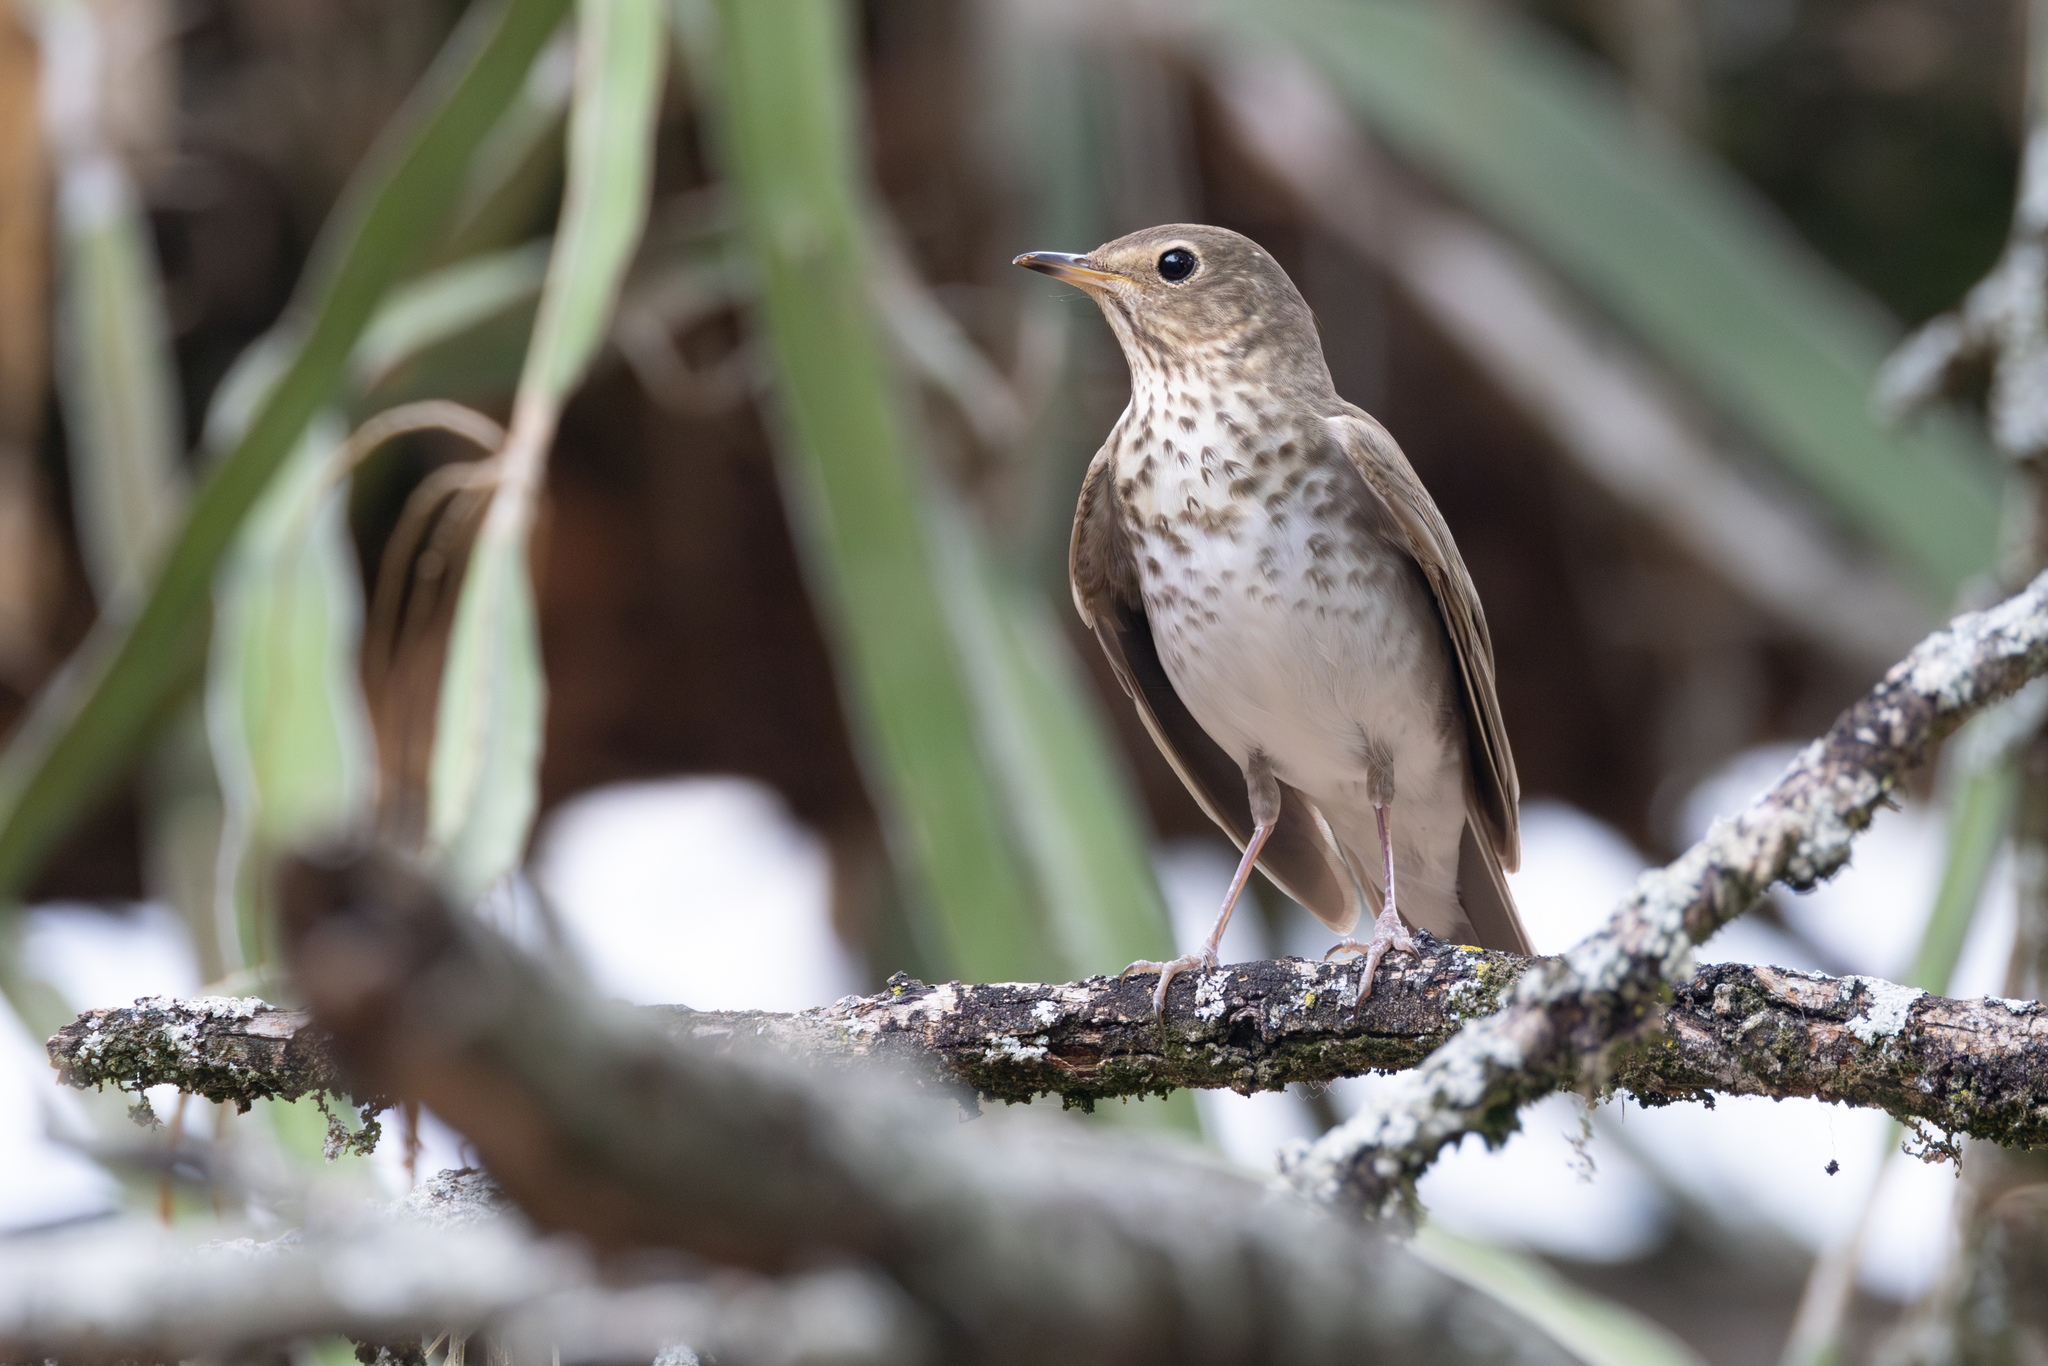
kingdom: Animalia
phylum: Chordata
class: Aves
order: Passeriformes
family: Turdidae
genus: Catharus
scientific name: Catharus ustulatus
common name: Swainson's thrush
